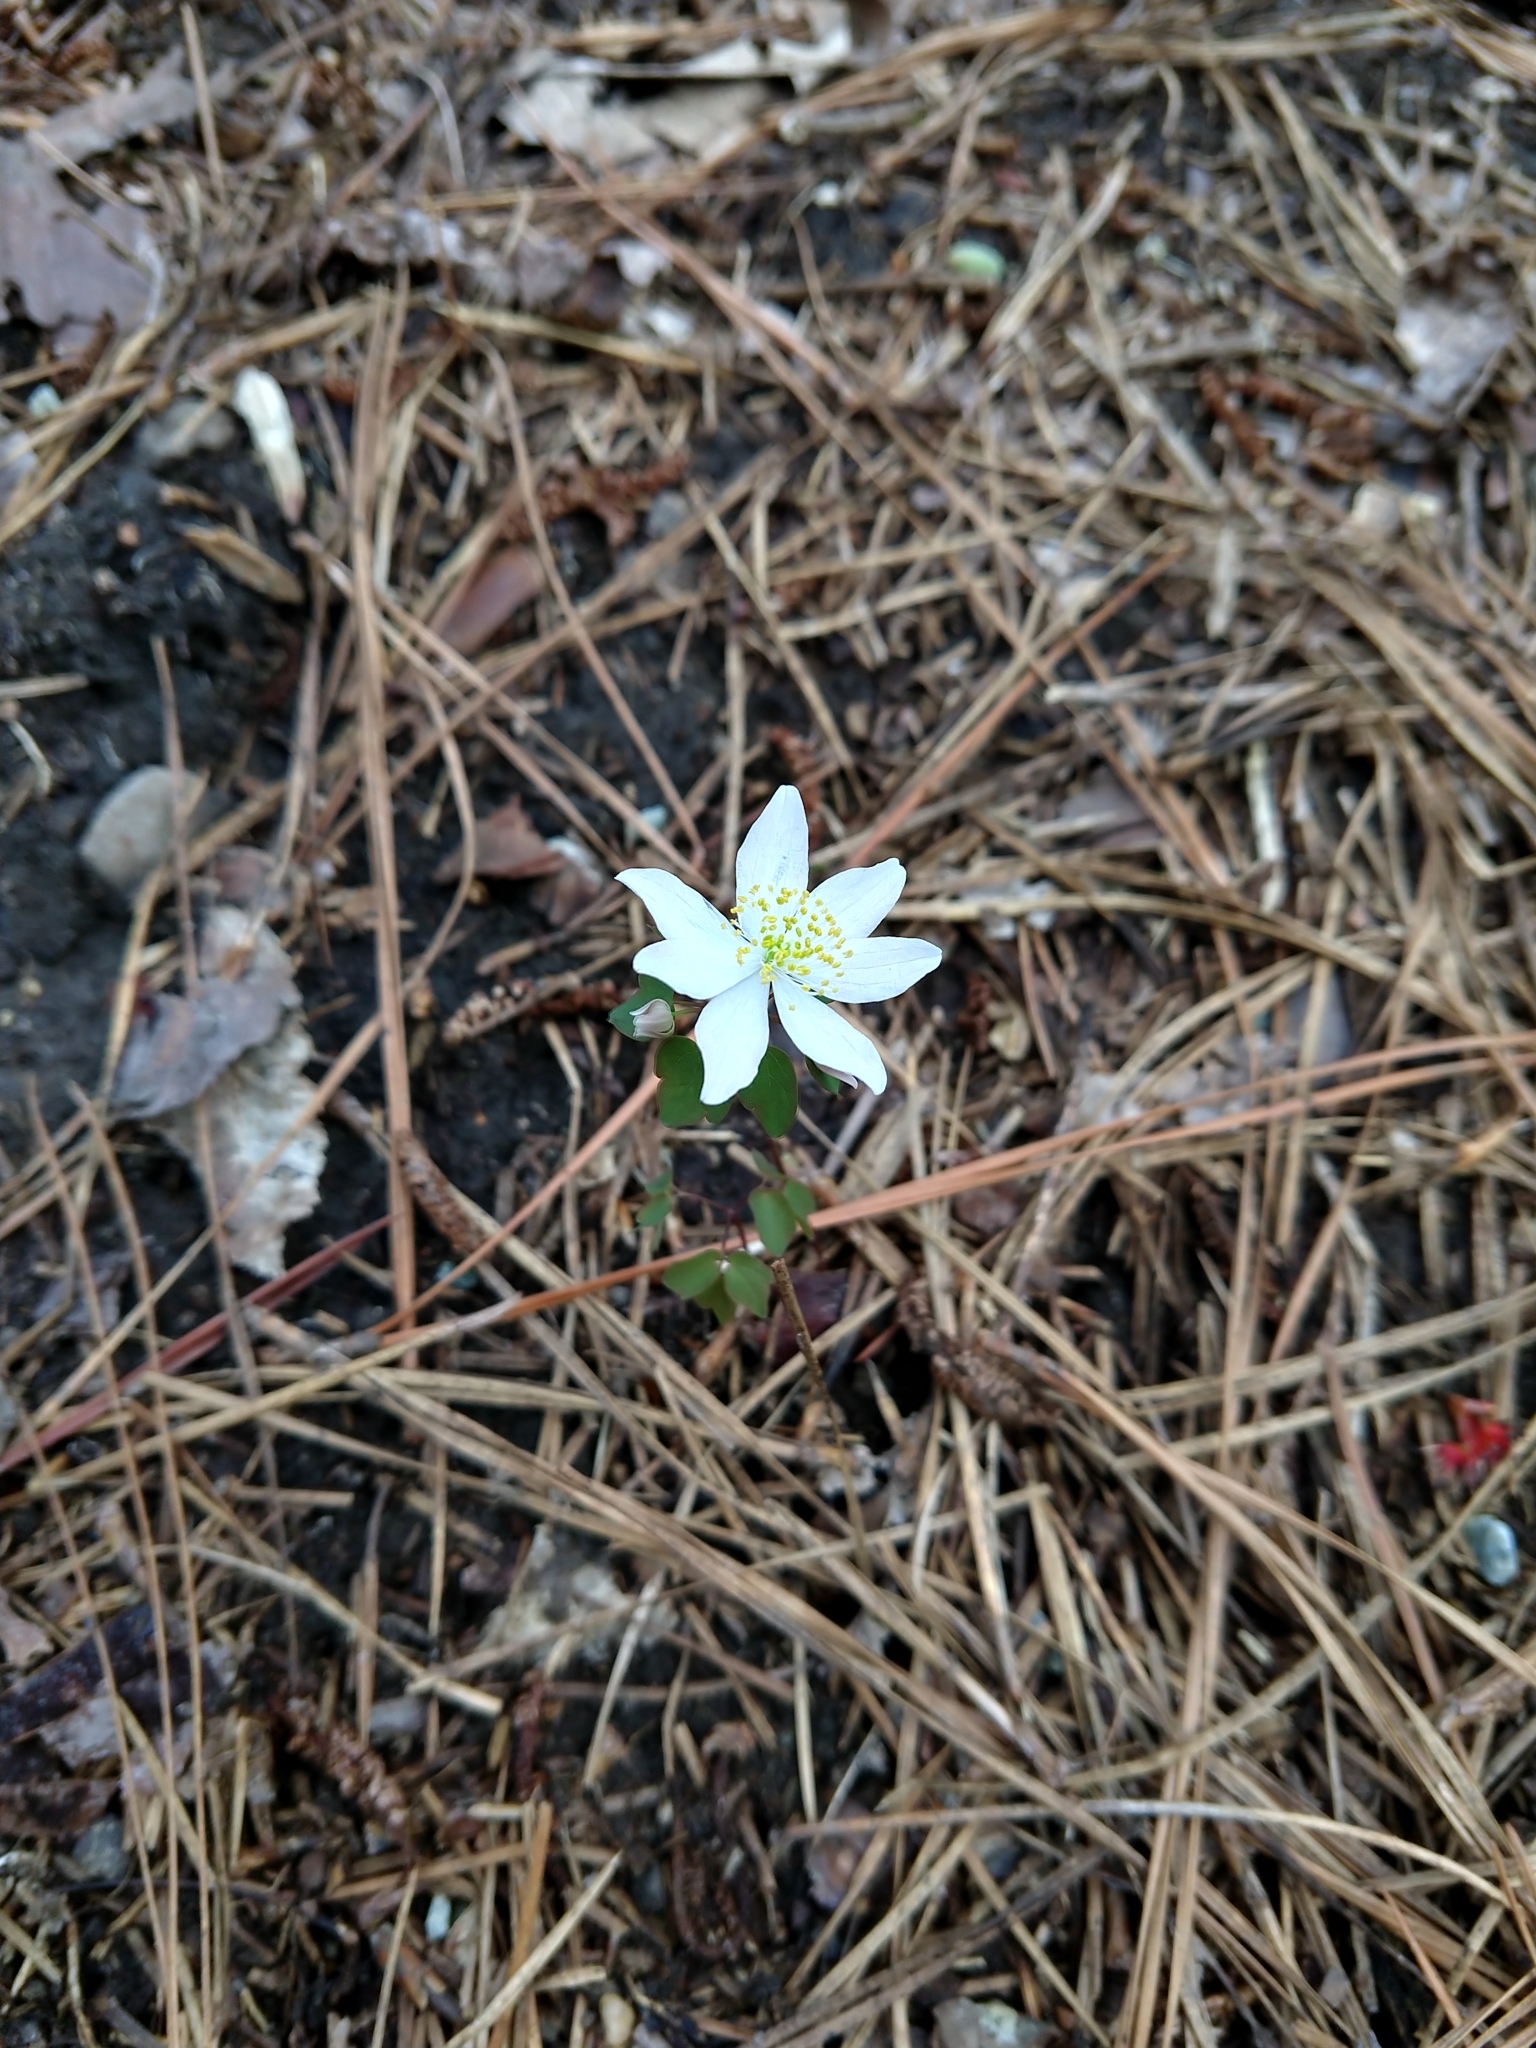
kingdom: Plantae
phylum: Tracheophyta
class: Magnoliopsida
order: Ranunculales
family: Ranunculaceae
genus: Thalictrum
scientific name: Thalictrum thalictroides
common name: Rue-anemone
